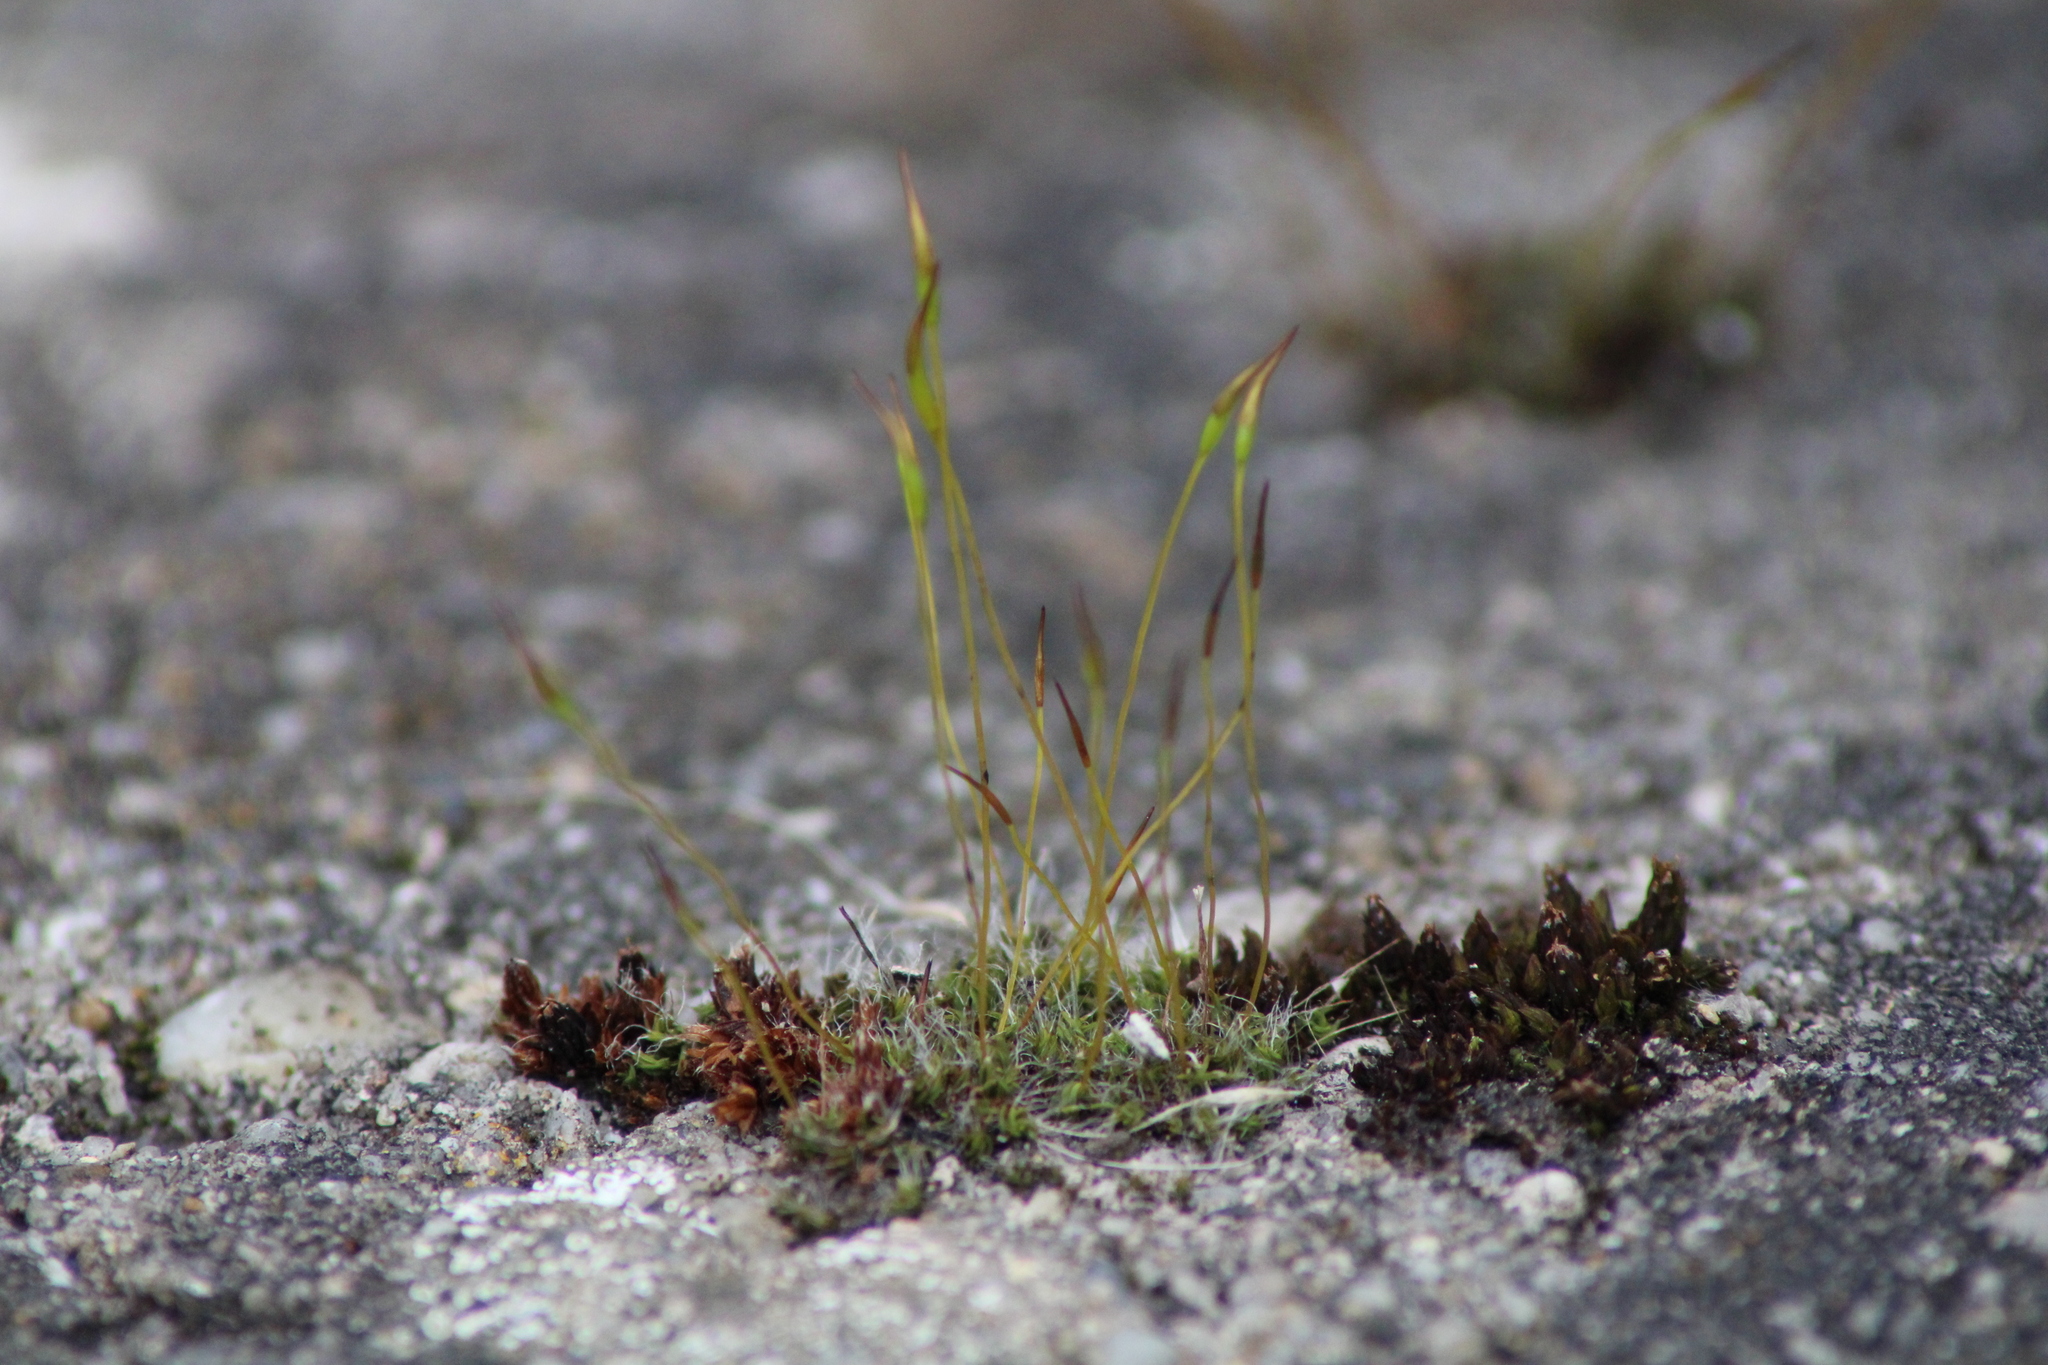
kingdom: Plantae
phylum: Bryophyta
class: Bryopsida
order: Pottiales
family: Pottiaceae
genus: Tortula
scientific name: Tortula muralis
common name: Wall screw-moss
